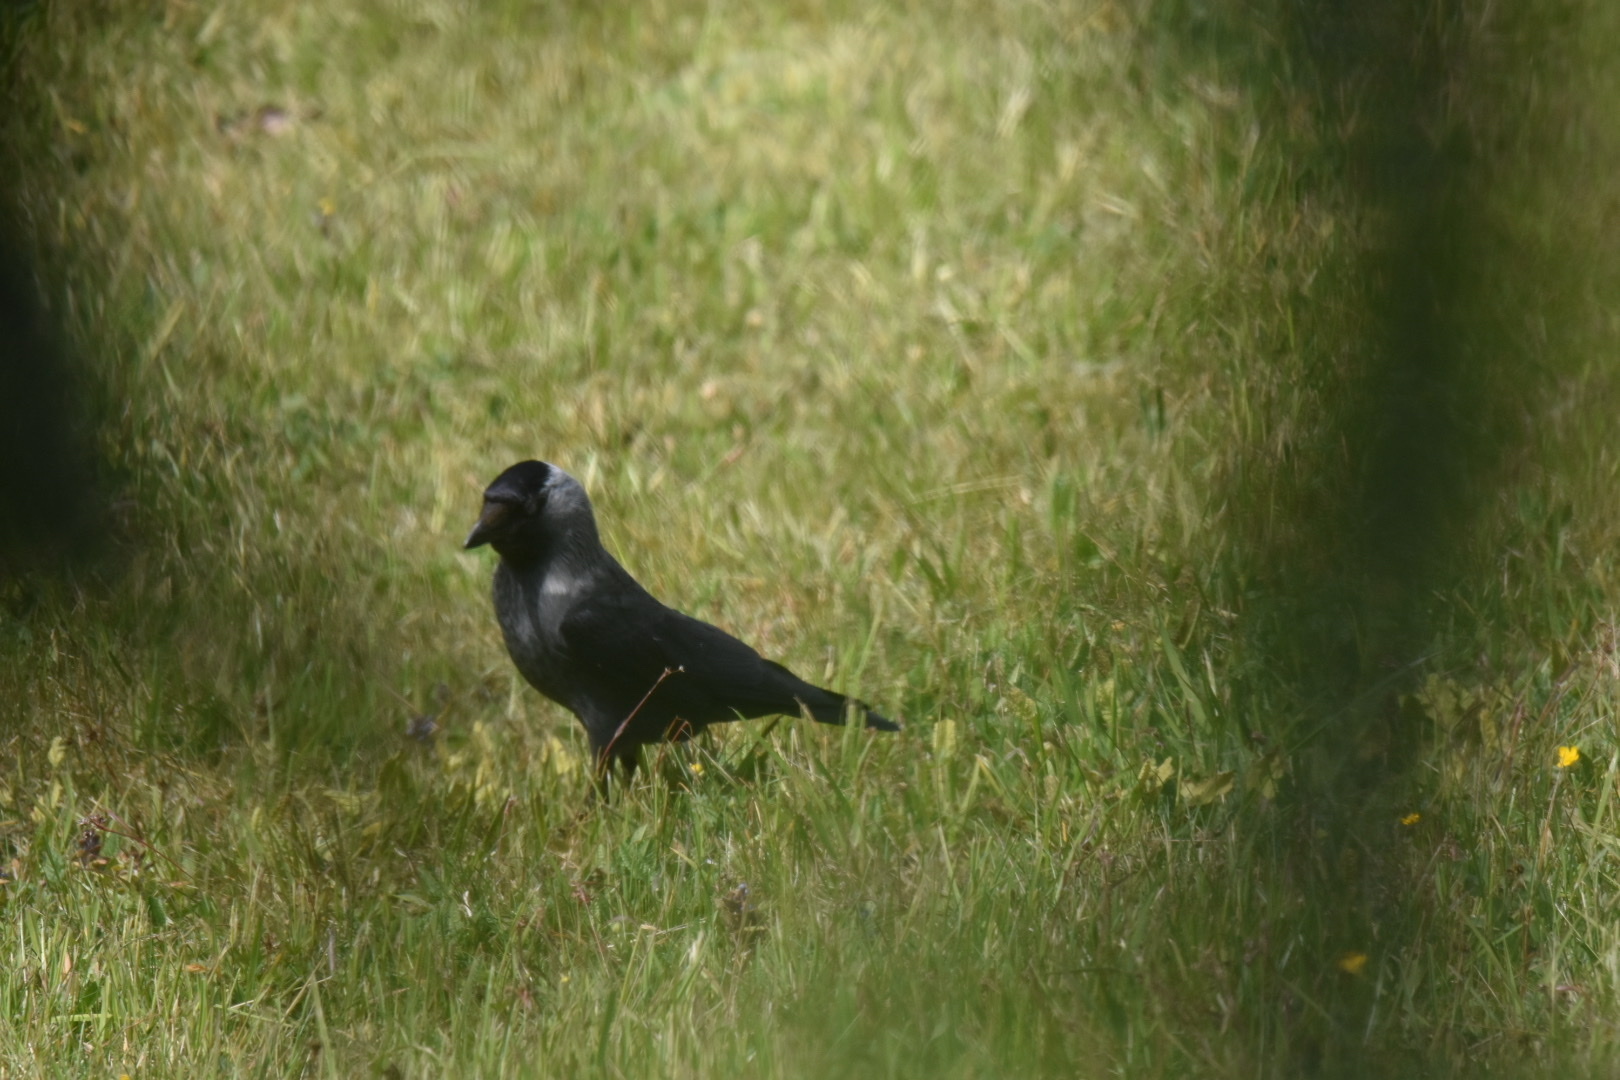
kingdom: Animalia
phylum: Chordata
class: Aves
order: Passeriformes
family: Corvidae
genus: Coloeus
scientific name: Coloeus monedula
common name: Western jackdaw
